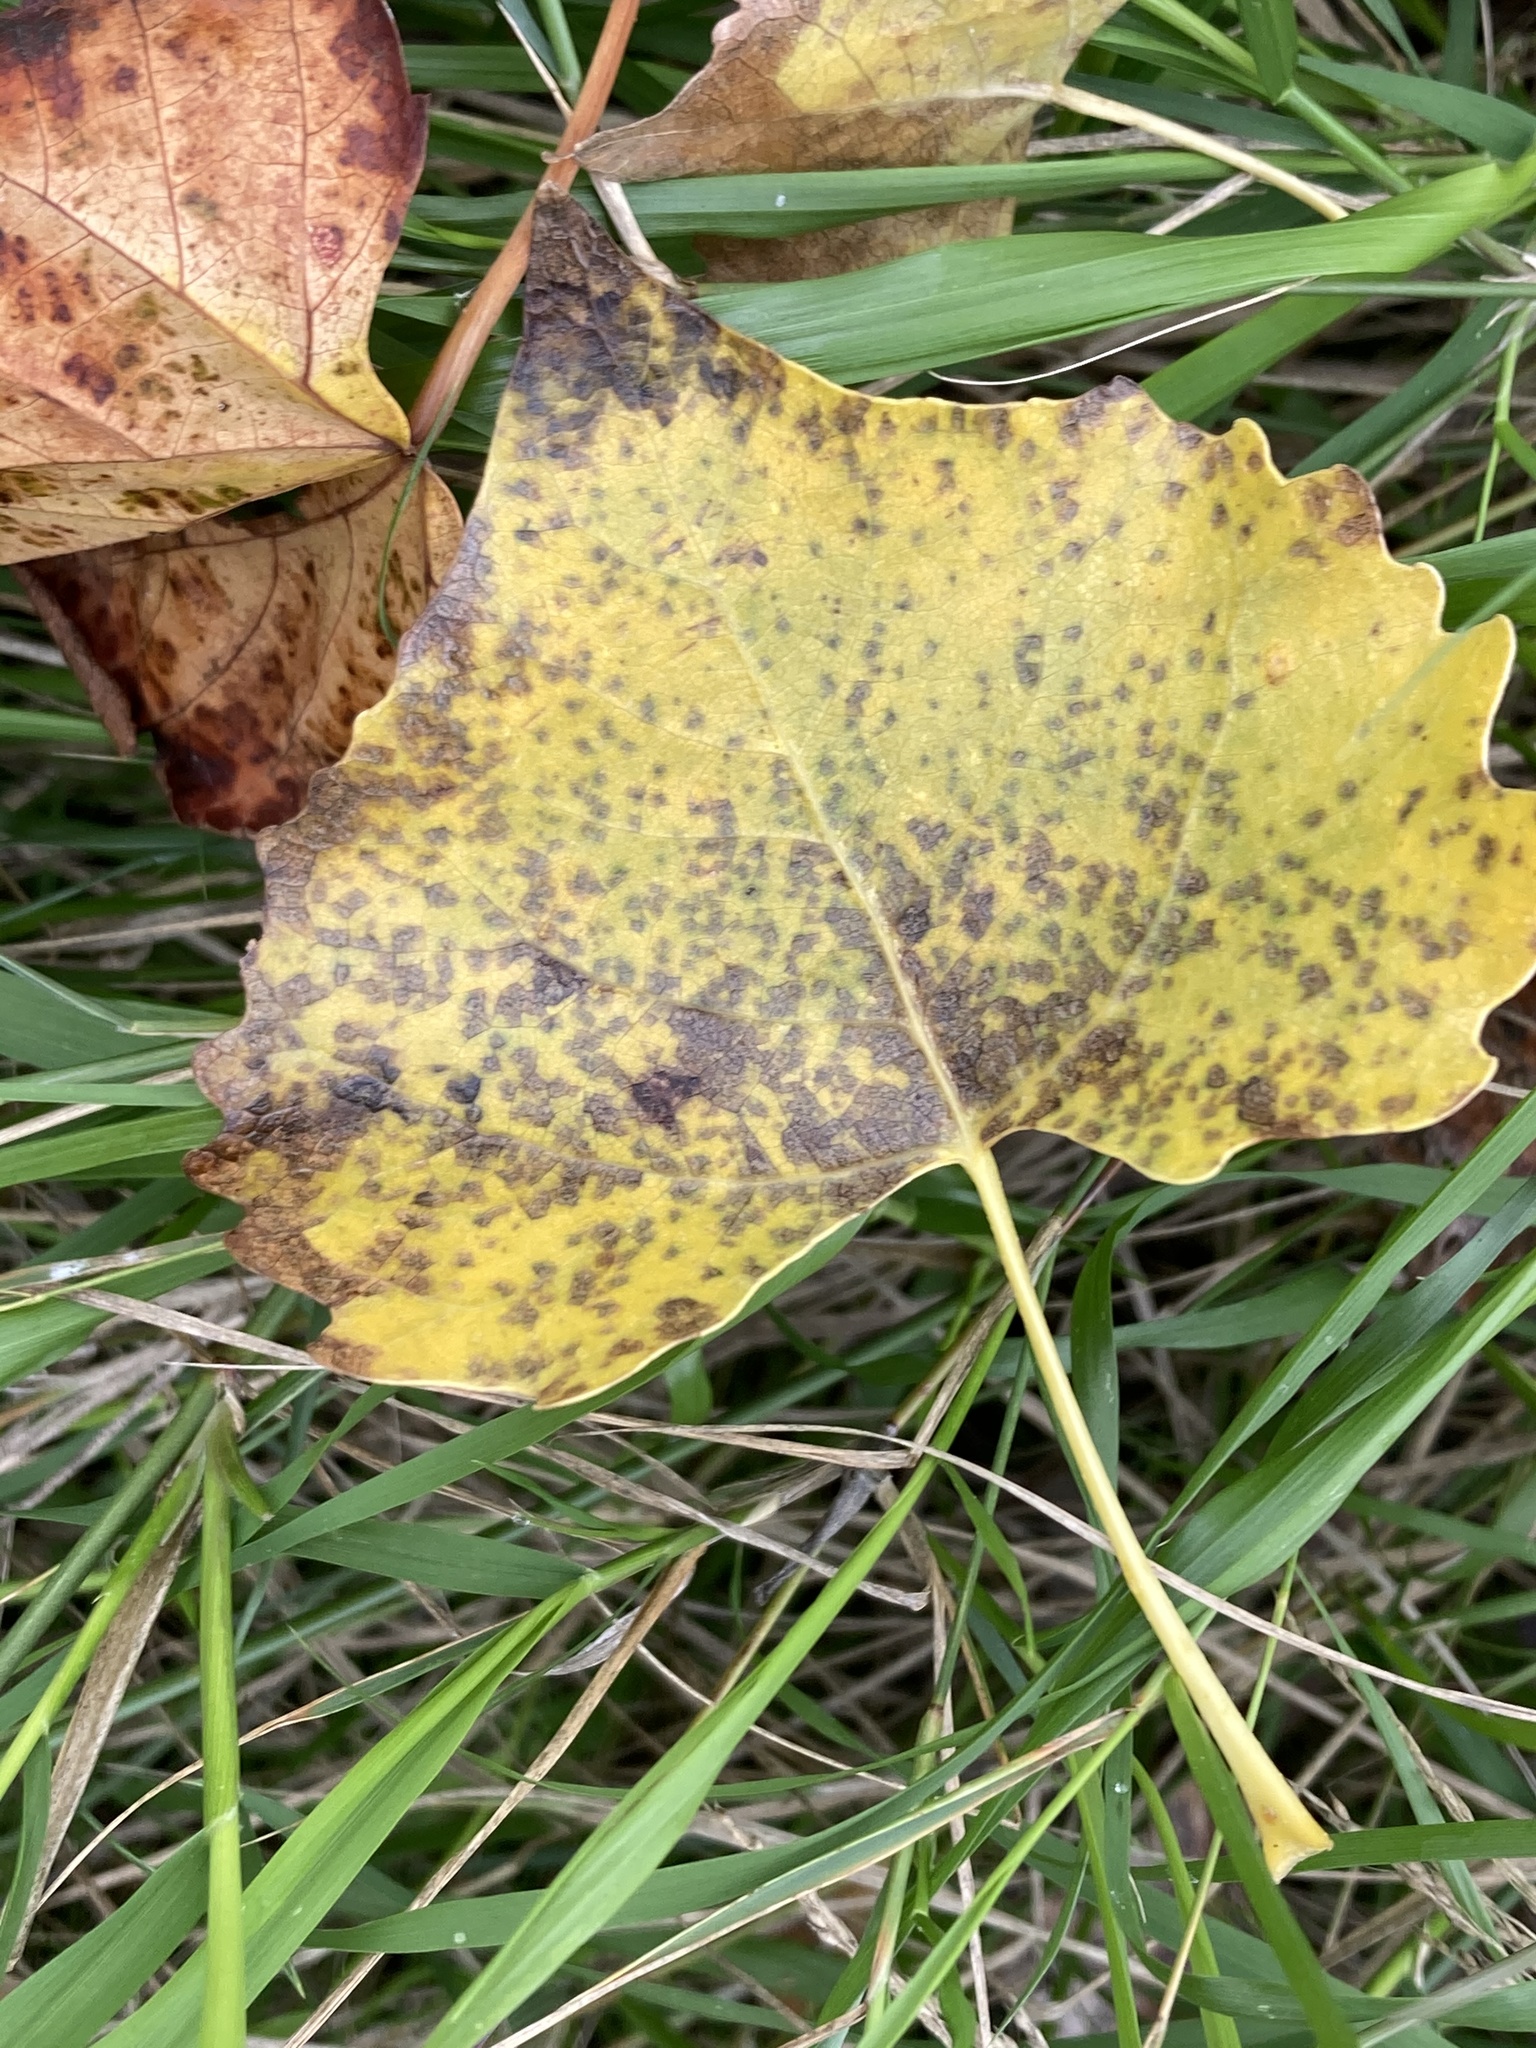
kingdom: Plantae
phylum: Tracheophyta
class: Magnoliopsida
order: Malpighiales
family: Salicaceae
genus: Populus
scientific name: Populus fremontii
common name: Fremont's cottonwood
